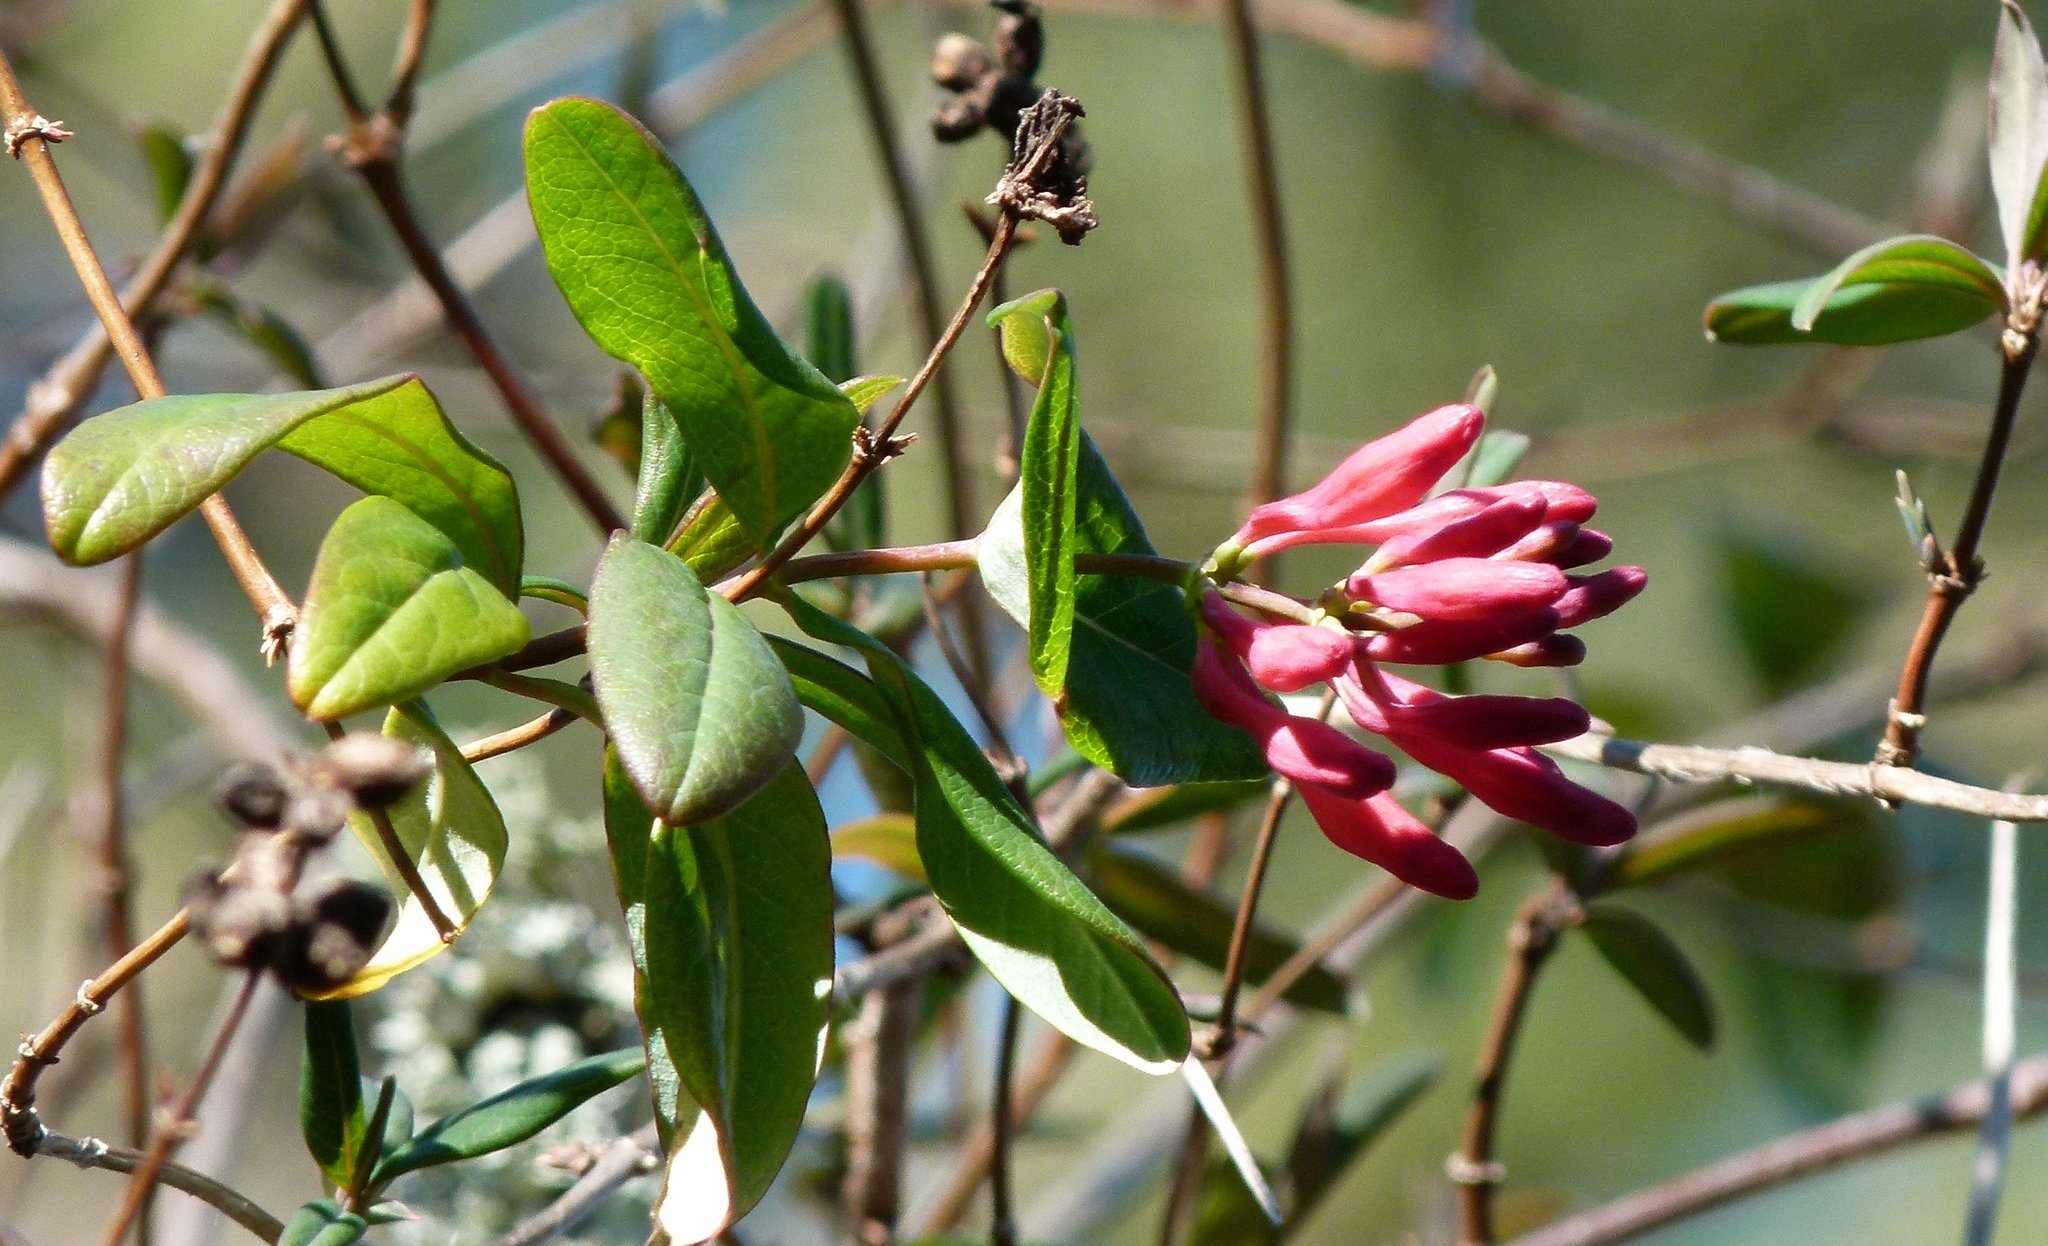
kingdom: Plantae
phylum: Tracheophyta
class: Magnoliopsida
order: Dipsacales
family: Caprifoliaceae
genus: Lonicera
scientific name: Lonicera sempervirens
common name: Coral honeysuckle
